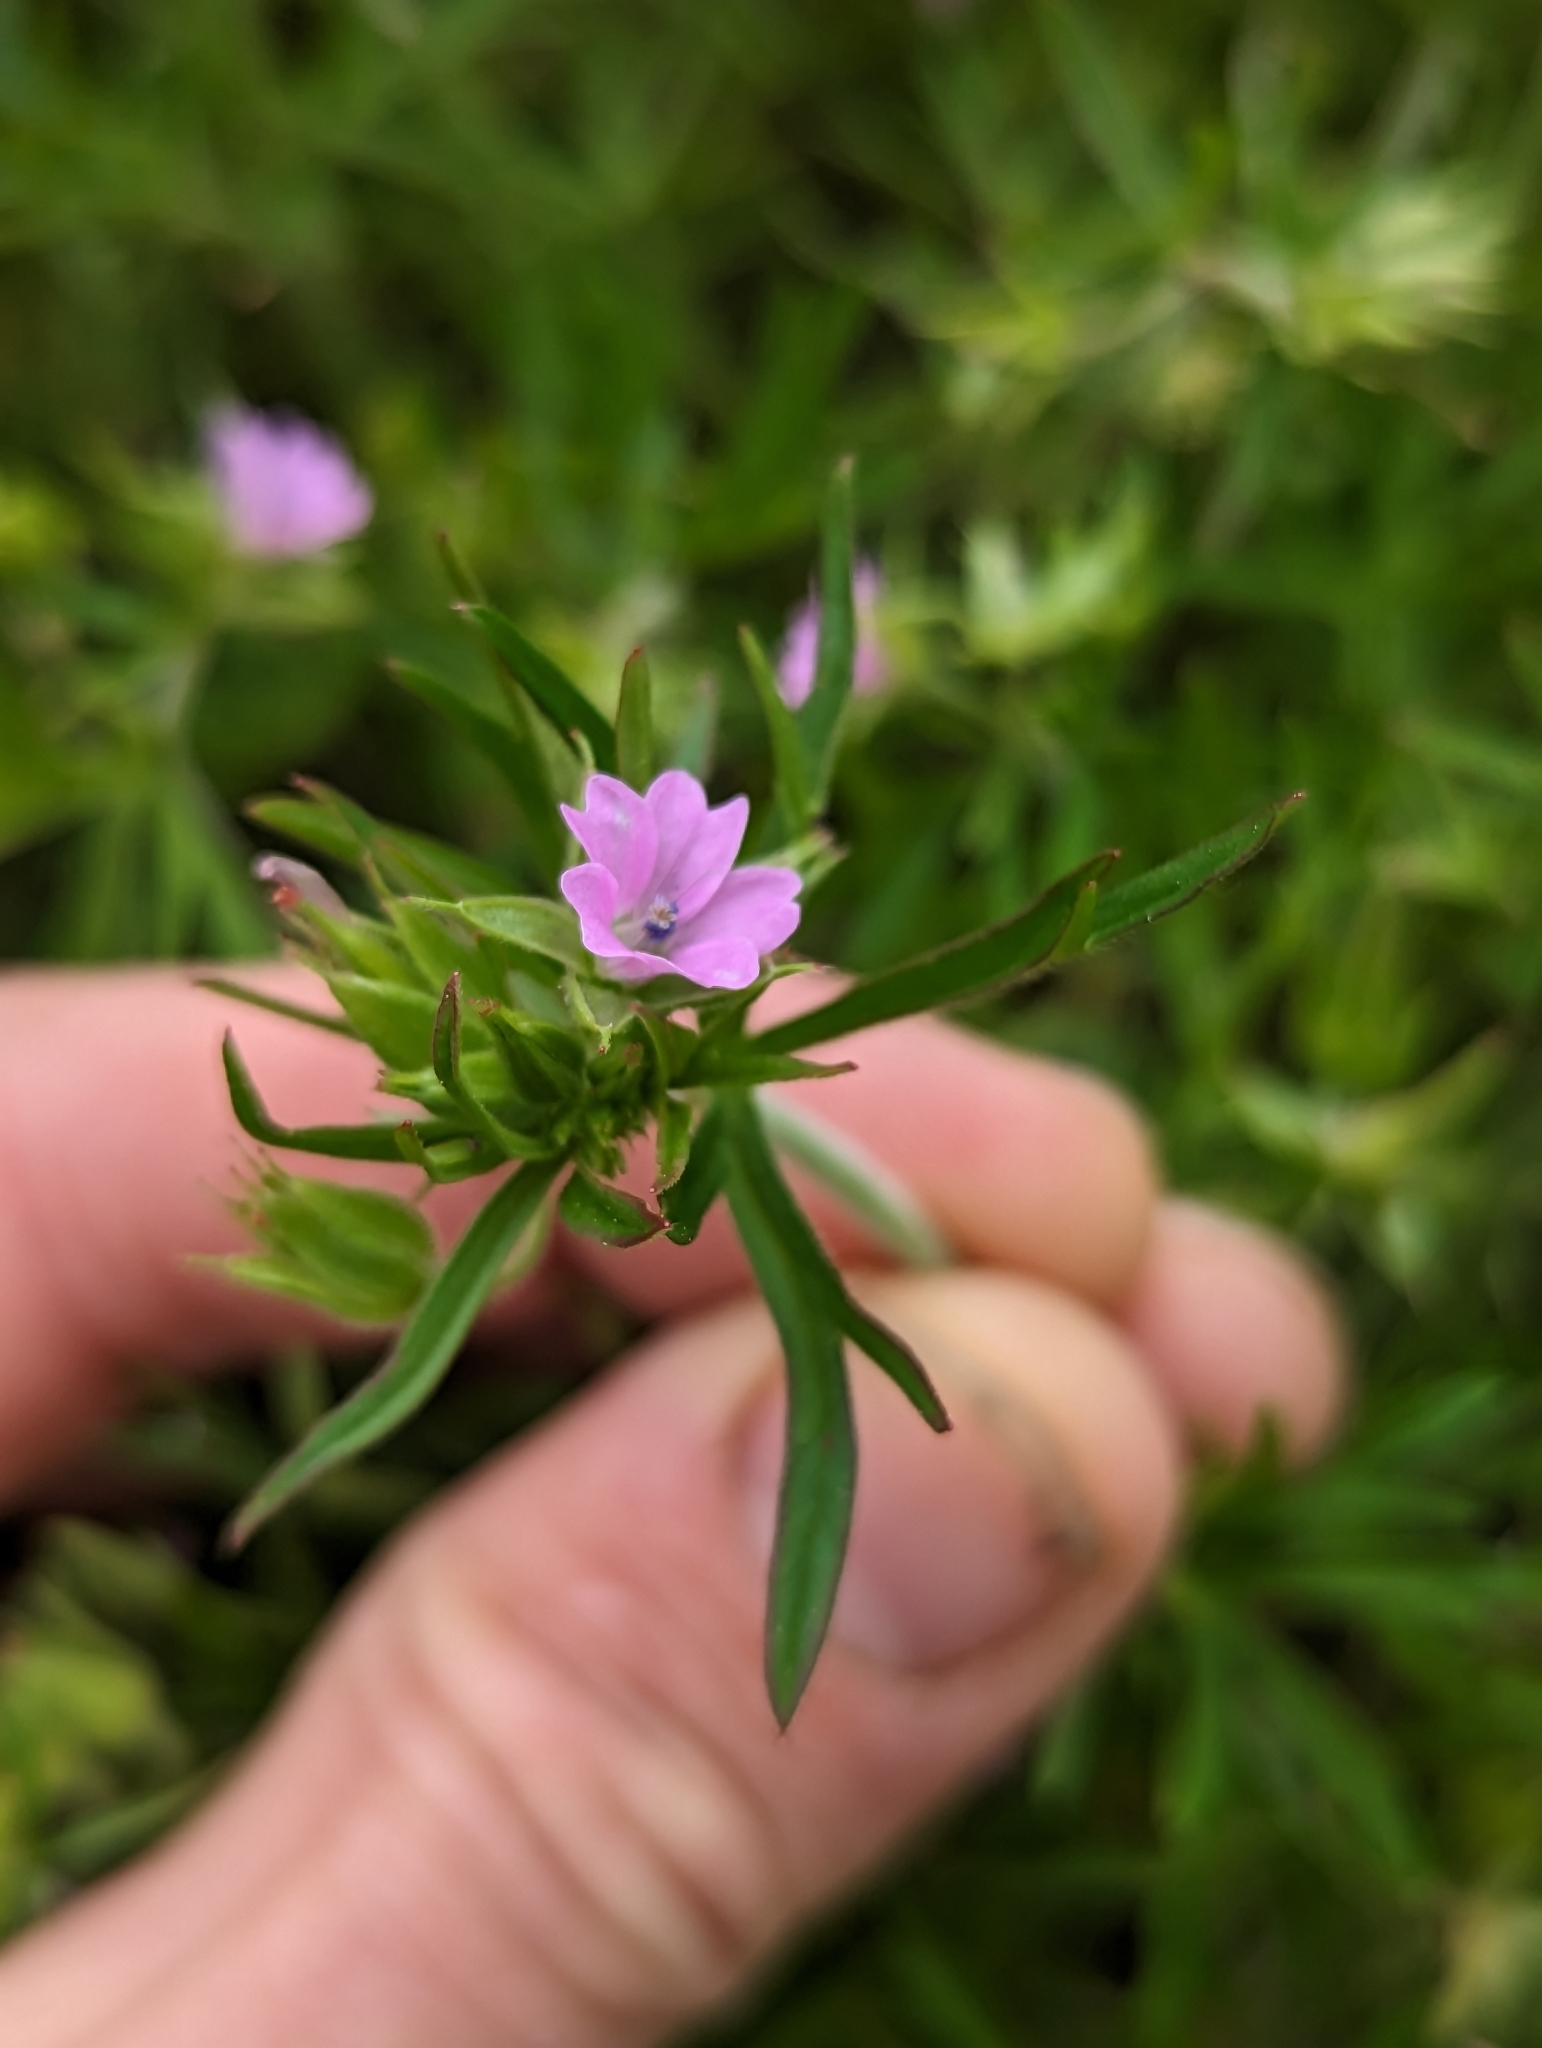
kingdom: Plantae
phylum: Tracheophyta
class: Magnoliopsida
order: Geraniales
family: Geraniaceae
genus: Geranium
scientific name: Geranium dissectum
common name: Cut-leaved crane's-bill
